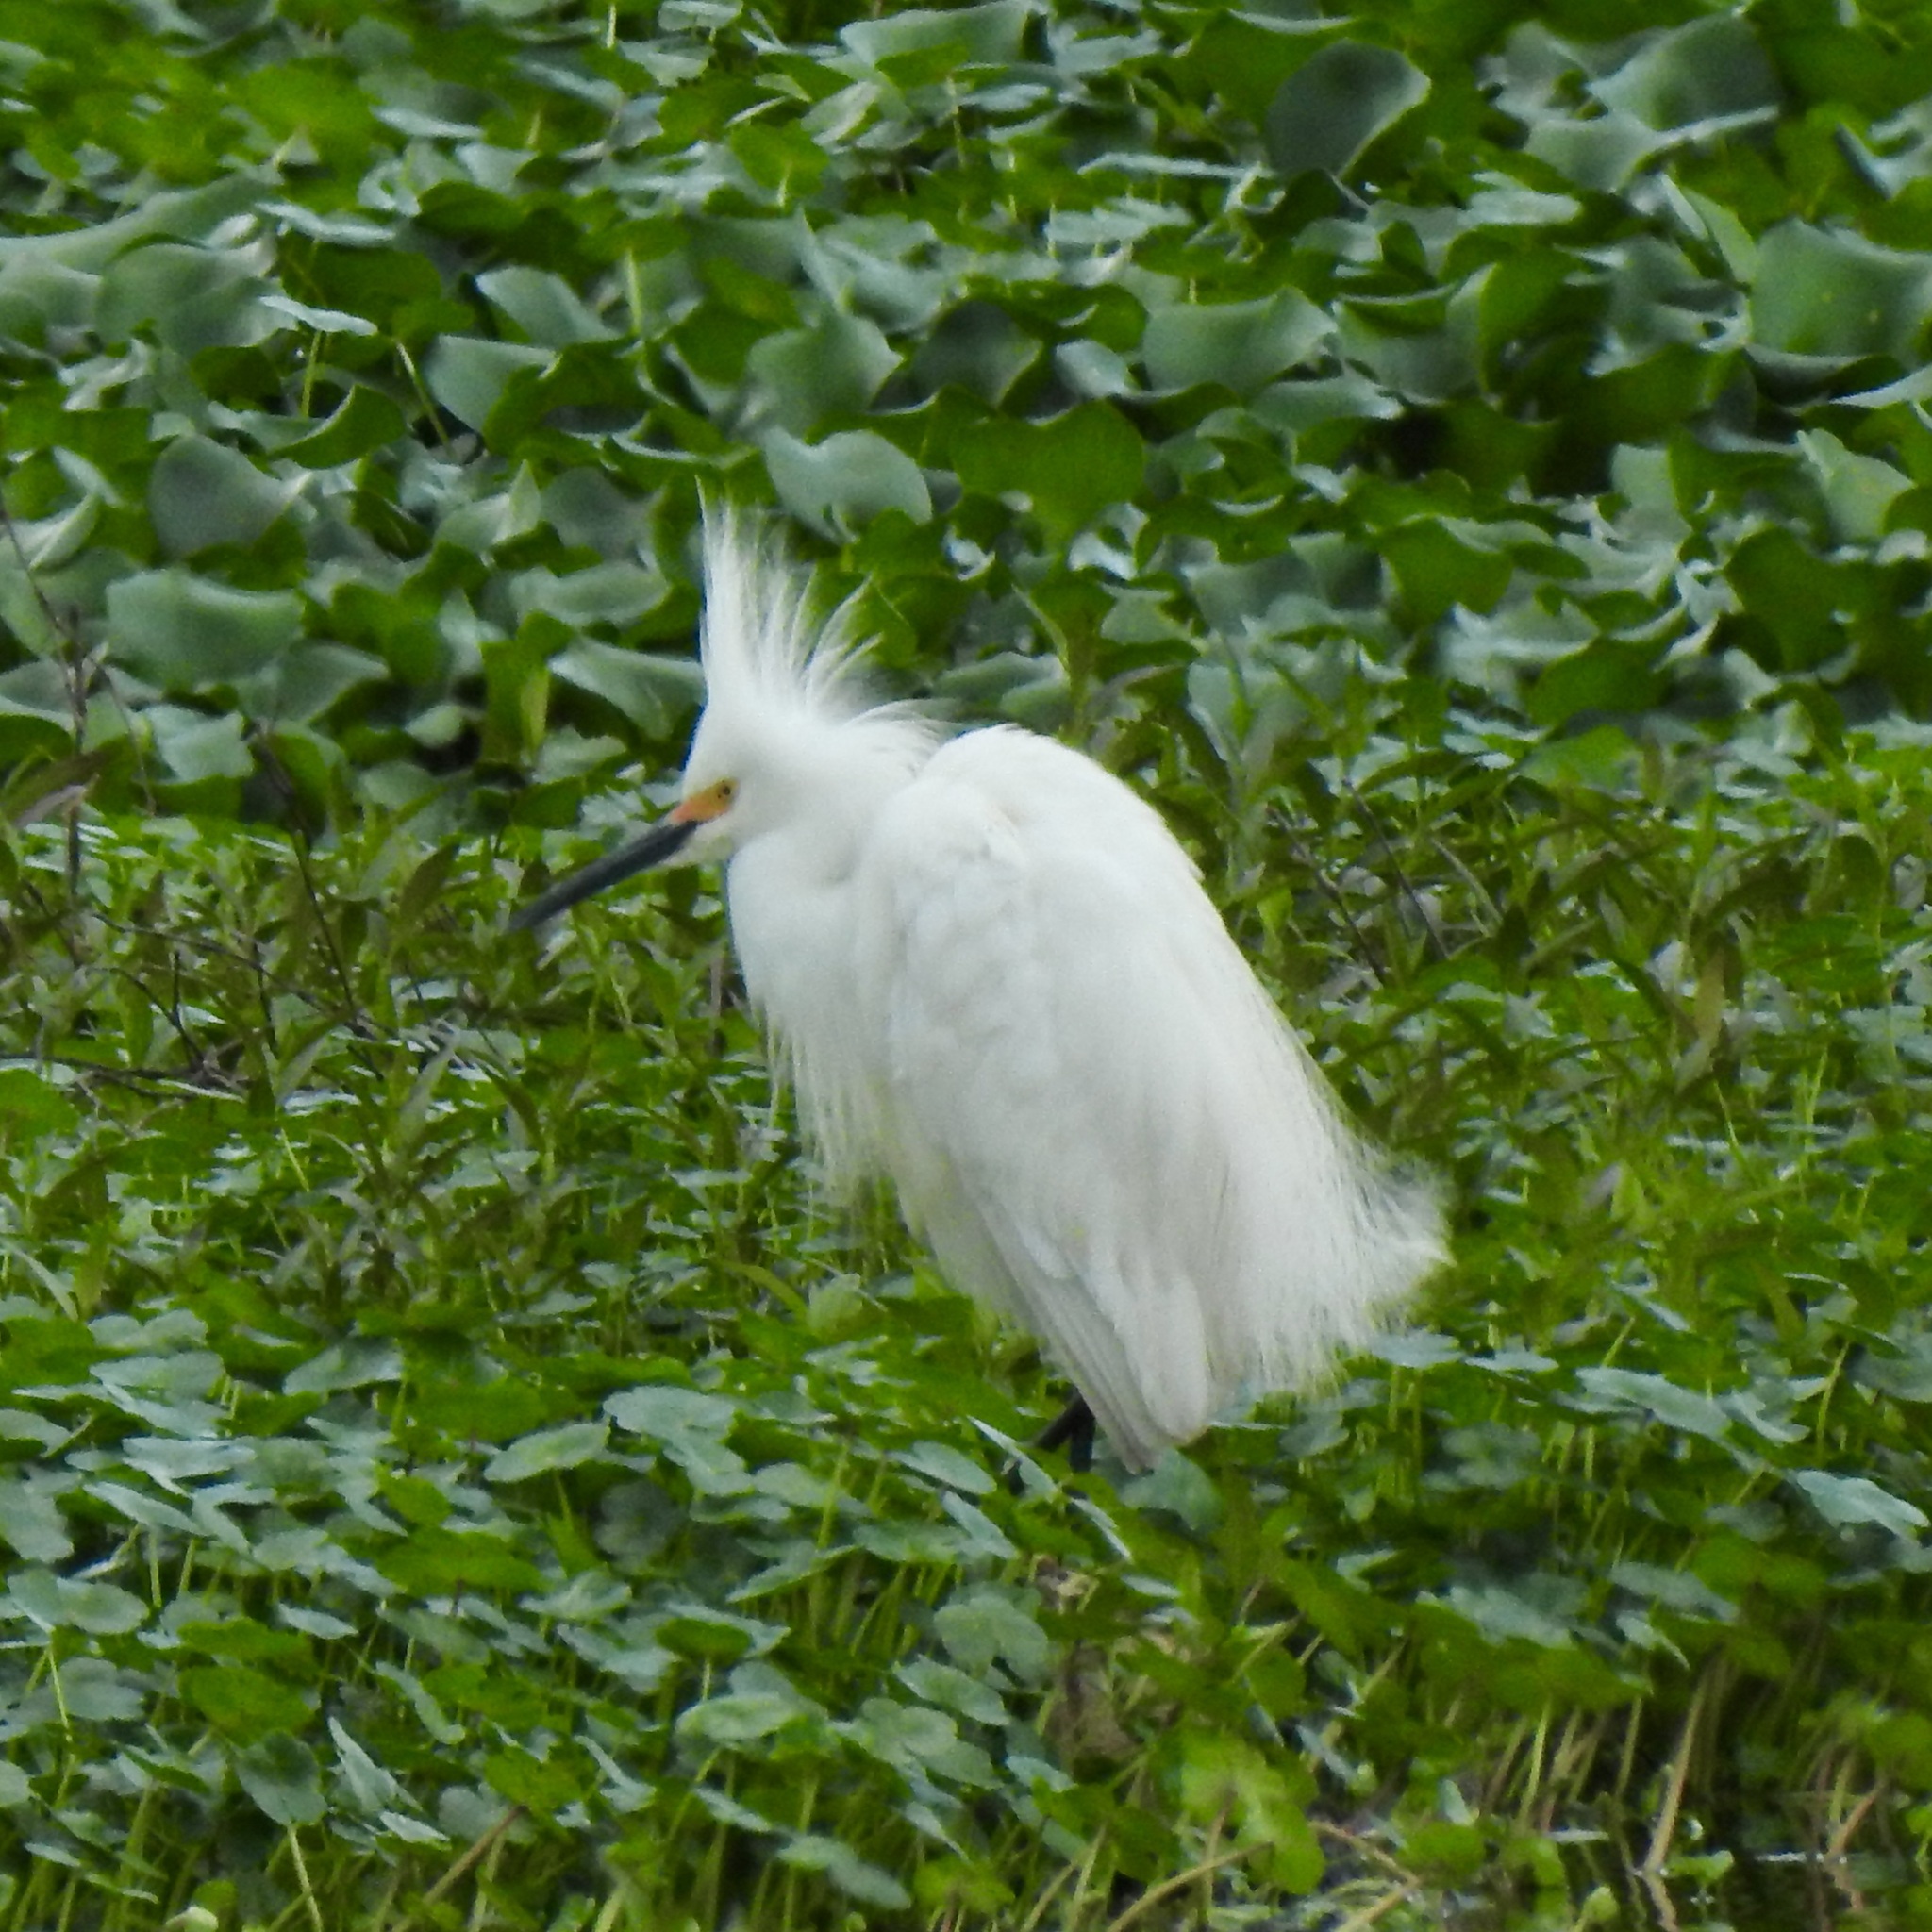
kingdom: Animalia
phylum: Chordata
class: Aves
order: Pelecaniformes
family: Ardeidae
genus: Egretta
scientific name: Egretta thula
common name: Snowy egret
